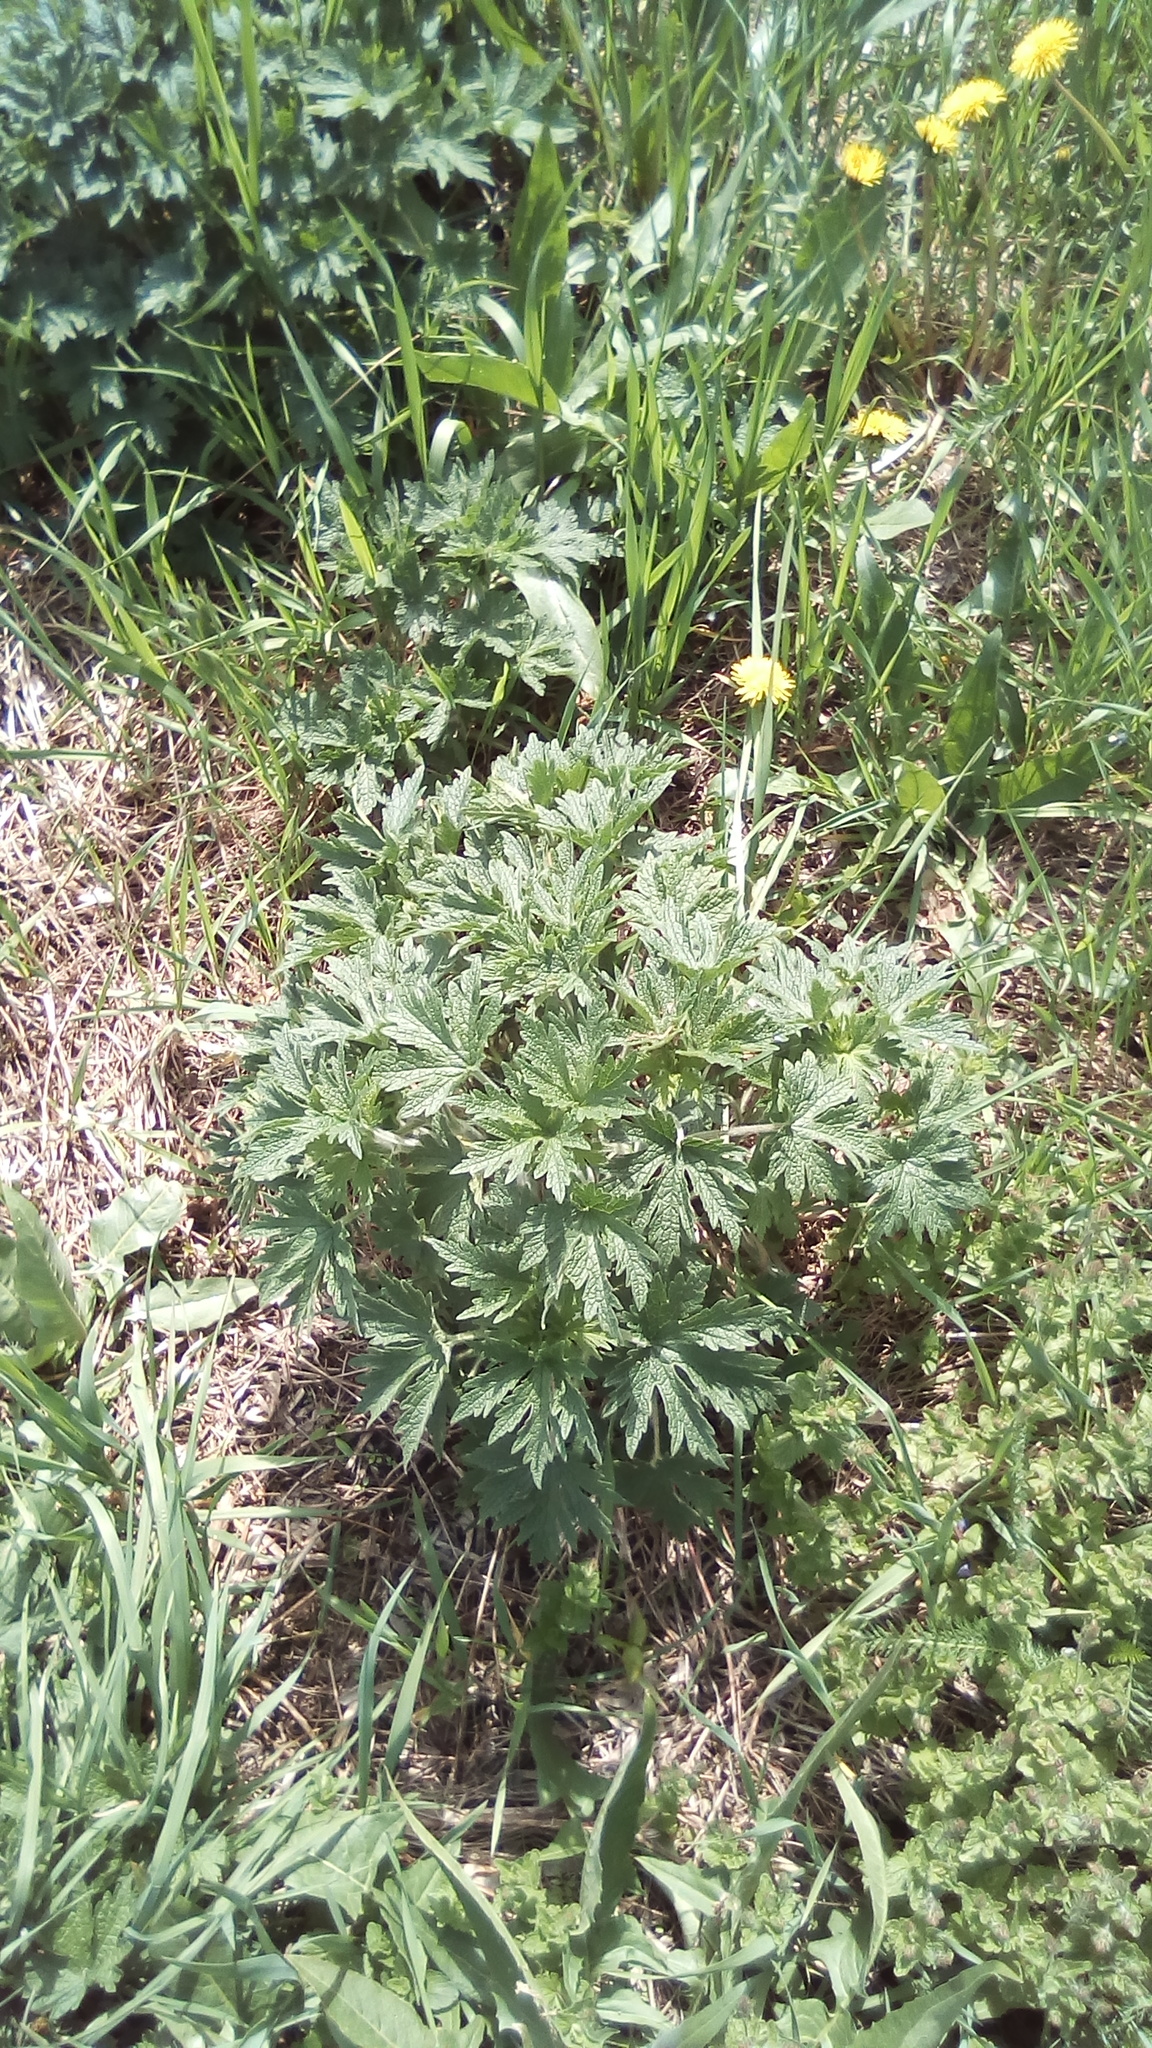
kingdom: Plantae
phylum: Tracheophyta
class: Magnoliopsida
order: Lamiales
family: Lamiaceae
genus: Leonurus
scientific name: Leonurus quinquelobatus
